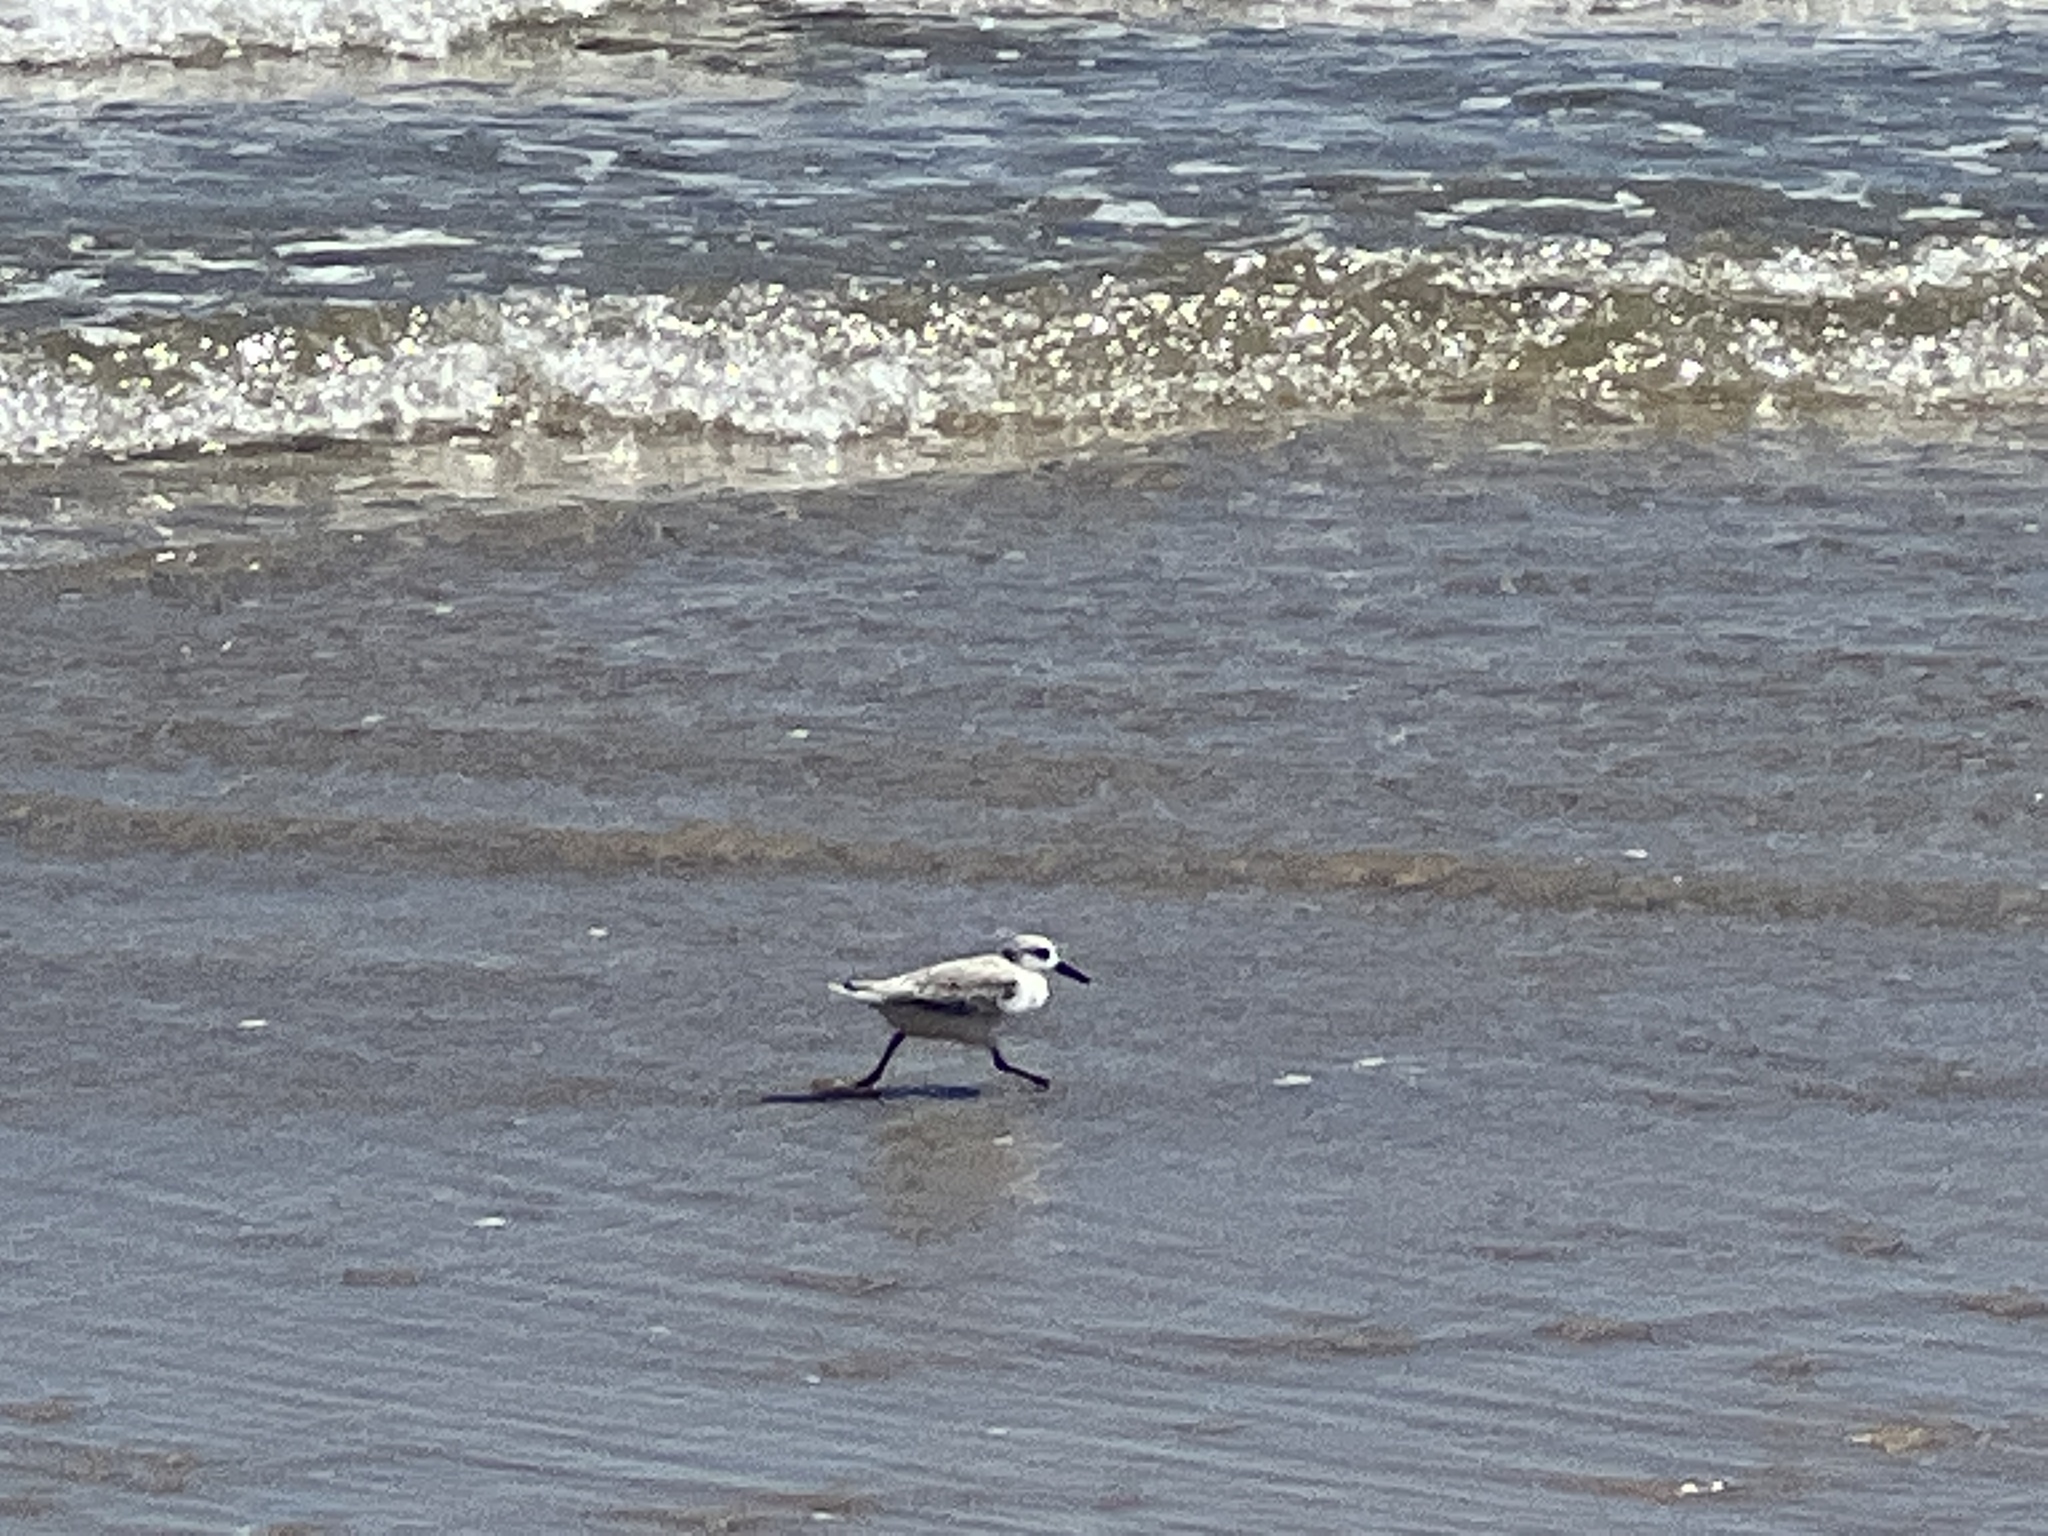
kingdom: Animalia
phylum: Chordata
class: Aves
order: Charadriiformes
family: Scolopacidae
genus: Calidris
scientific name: Calidris alba
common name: Sanderling
